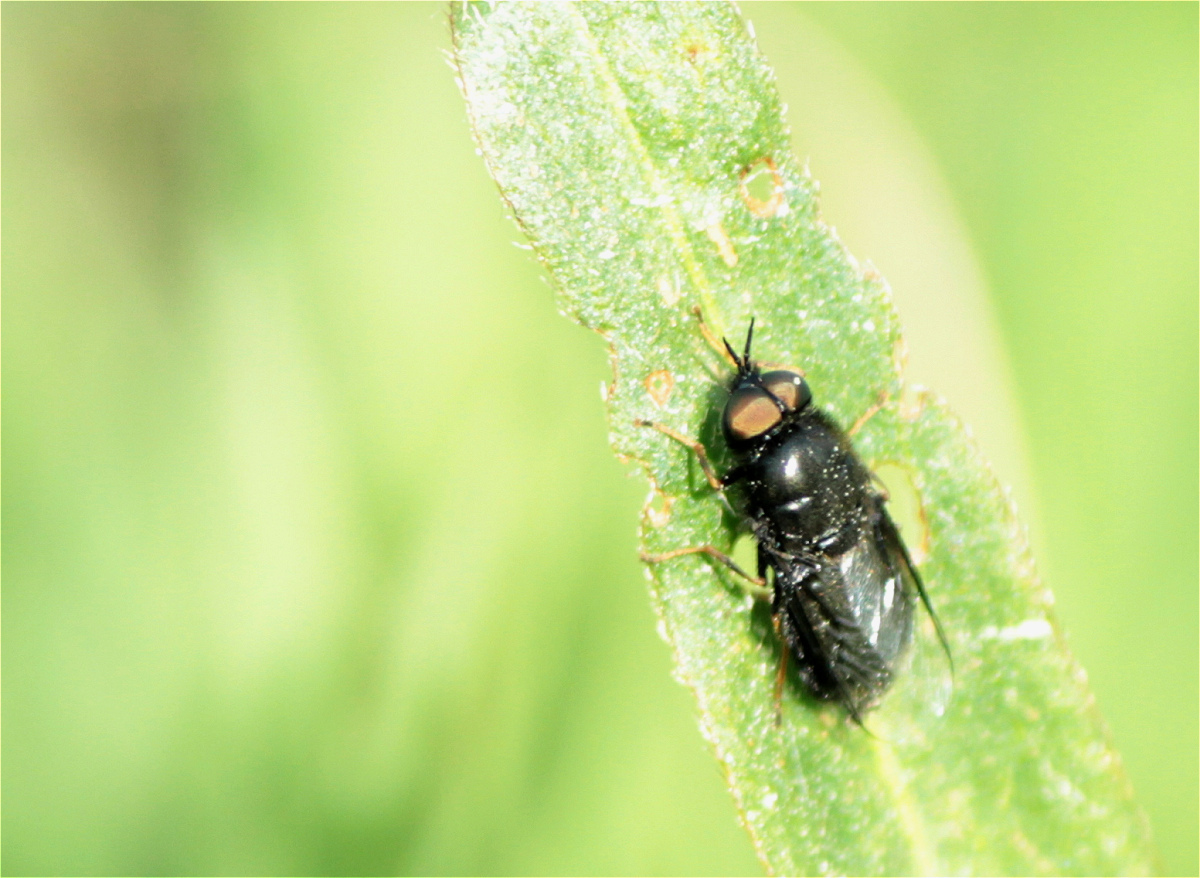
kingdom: Animalia
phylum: Arthropoda
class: Insecta
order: Diptera
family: Stratiomyidae
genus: Odontomyia
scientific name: Odontomyia tigrina
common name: Black colonel
